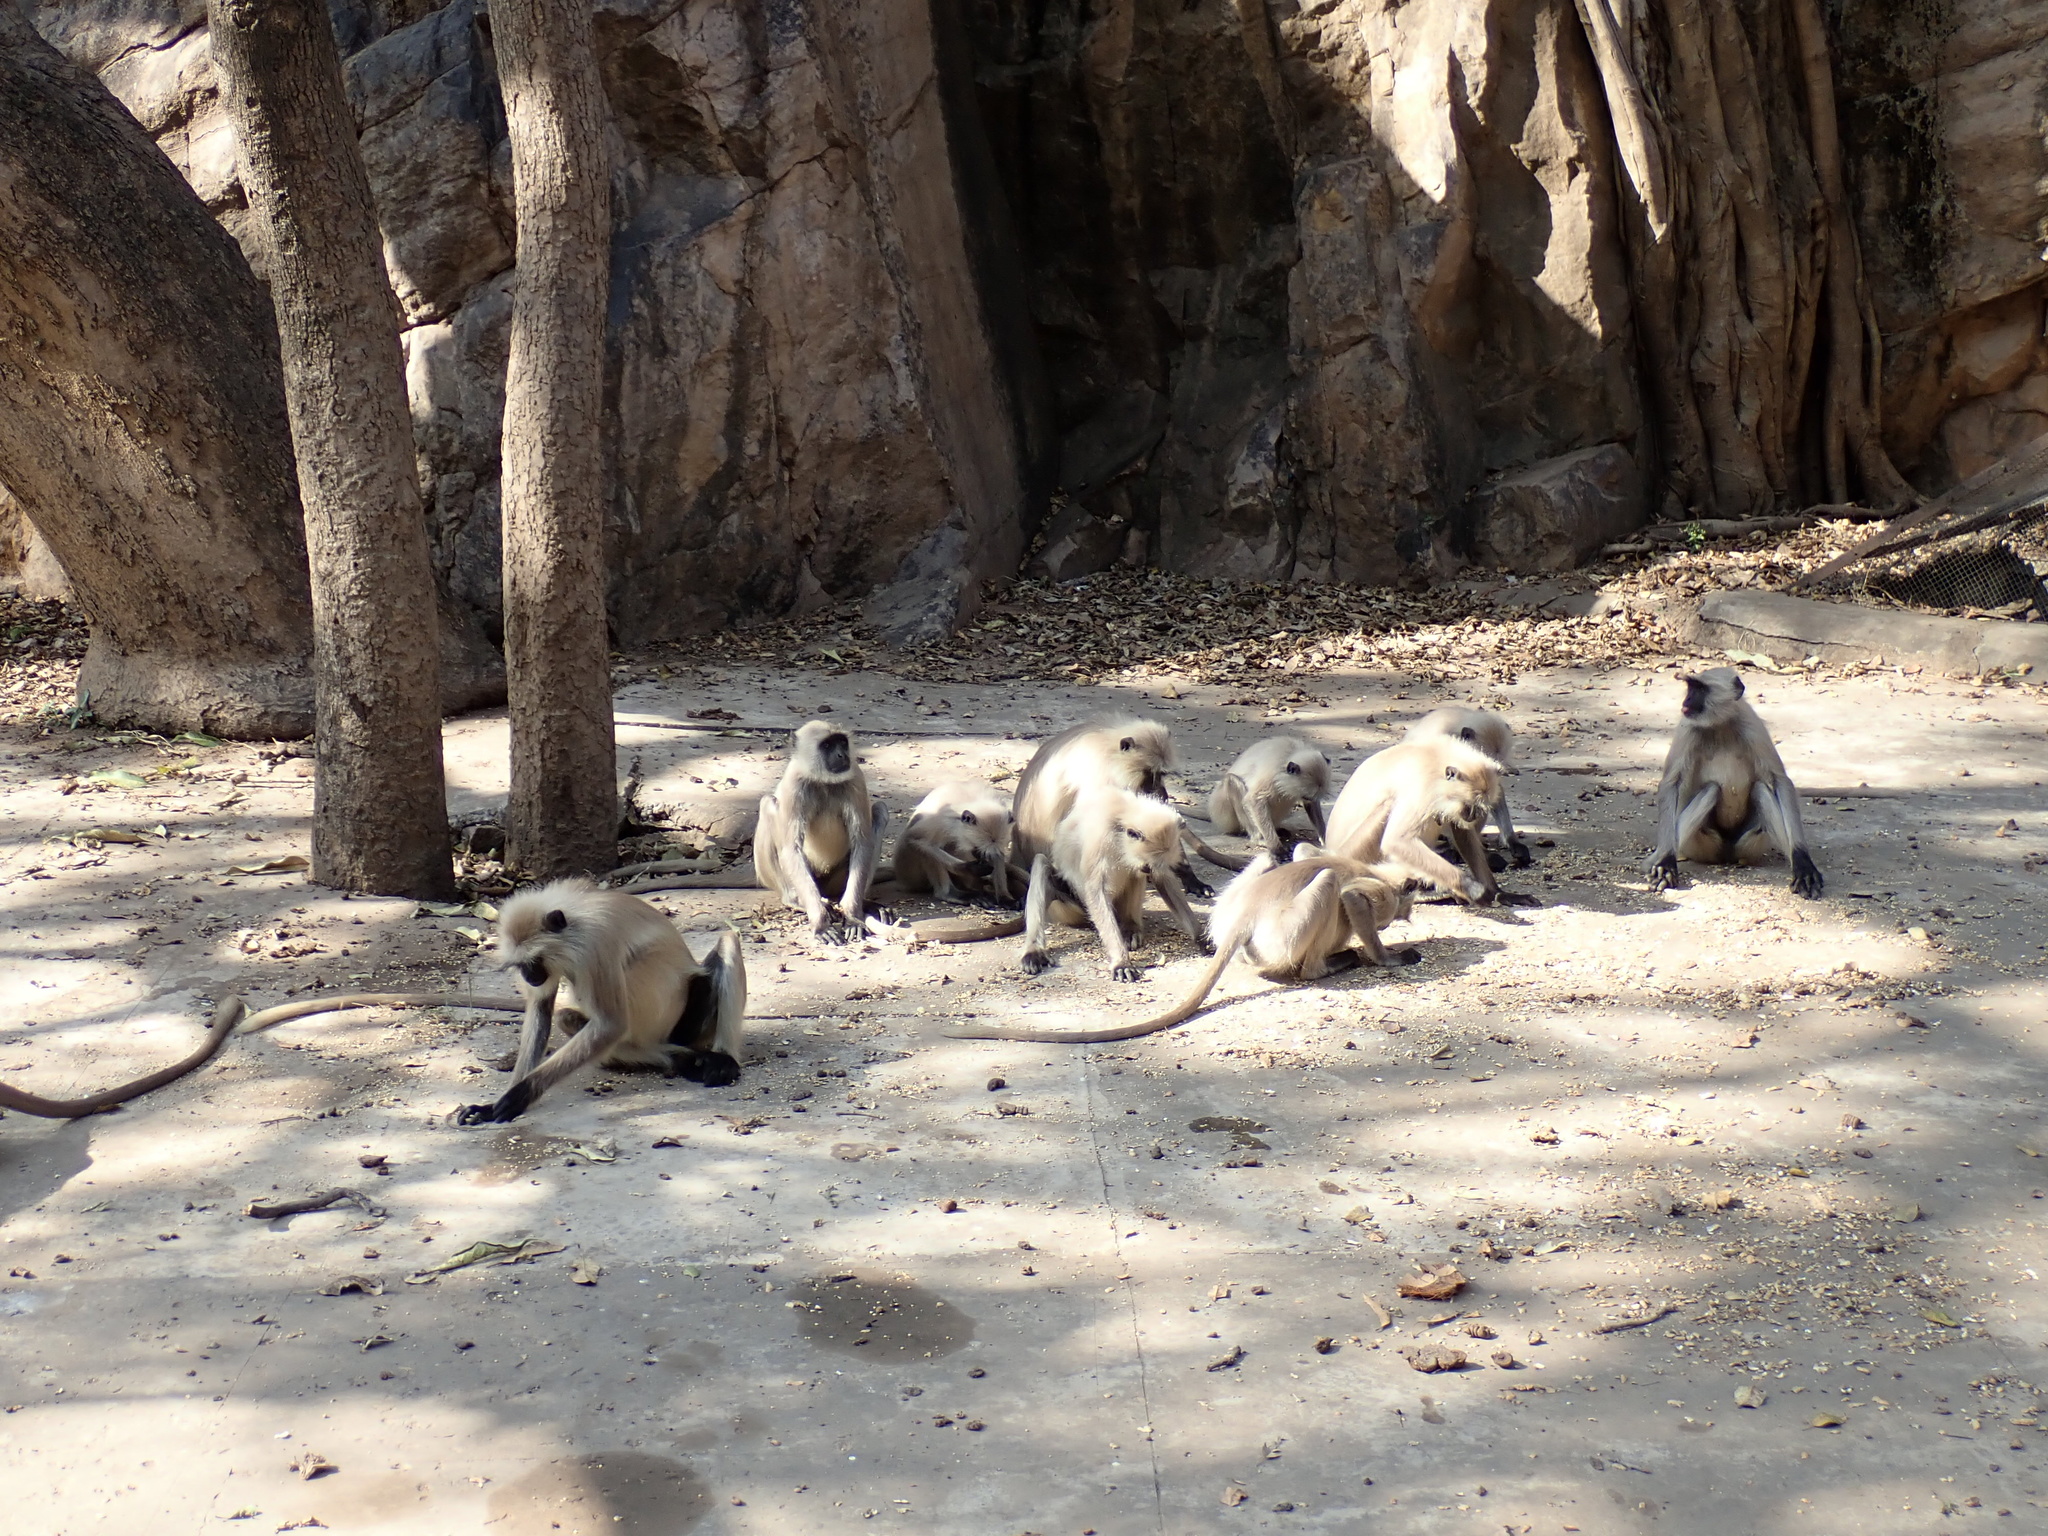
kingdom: Animalia
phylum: Chordata
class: Mammalia
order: Primates
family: Cercopithecidae
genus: Semnopithecus
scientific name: Semnopithecus entellus
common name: Northern plains gray langur
